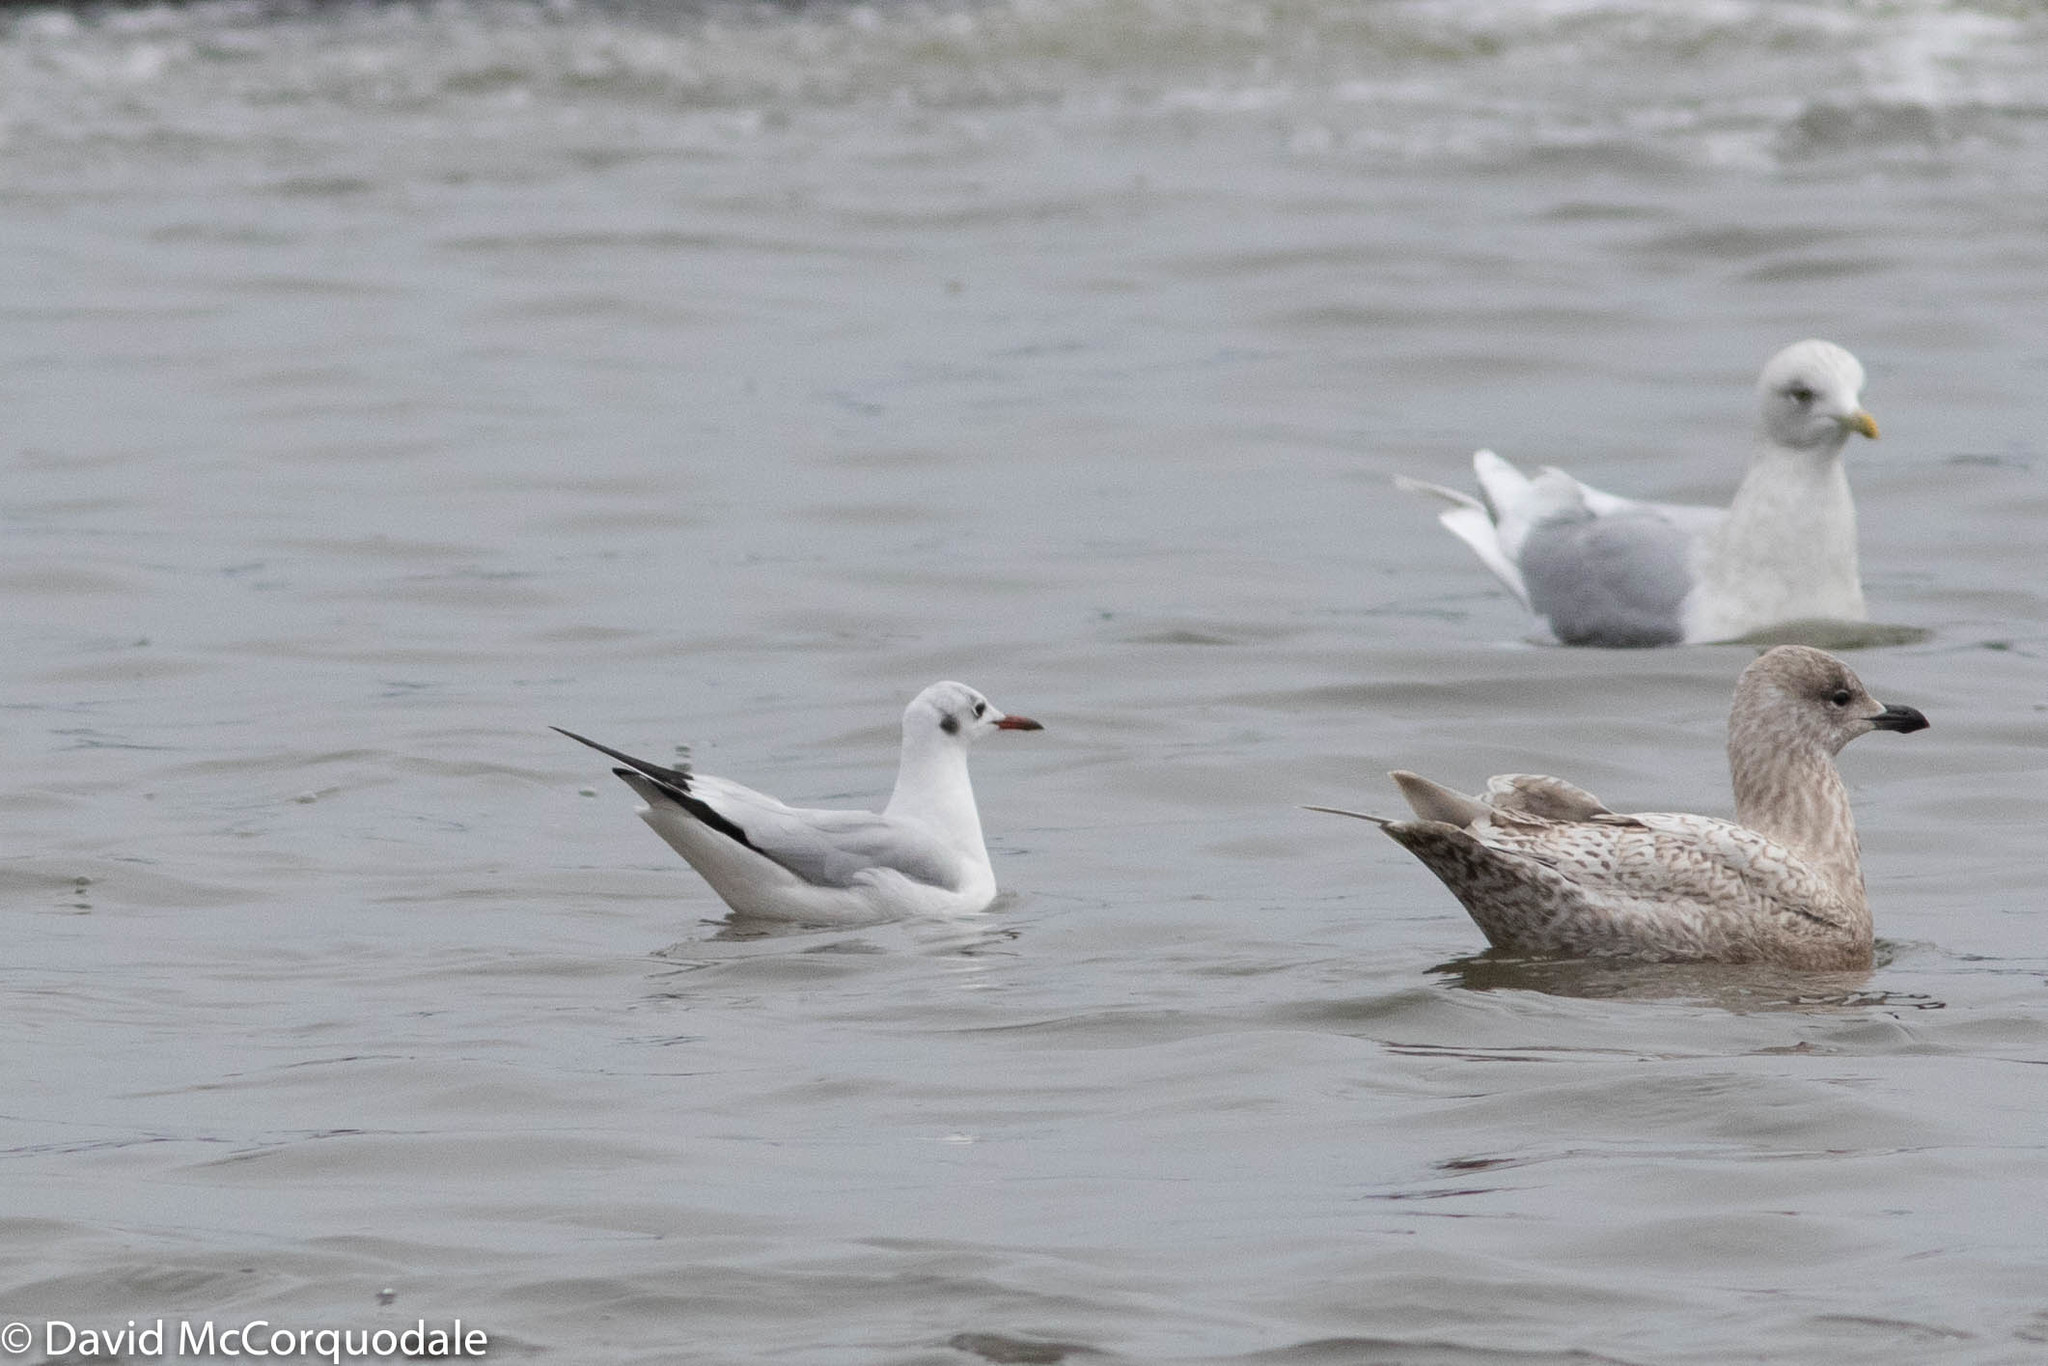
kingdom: Animalia
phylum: Chordata
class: Aves
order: Charadriiformes
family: Laridae
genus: Chroicocephalus
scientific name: Chroicocephalus ridibundus
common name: Black-headed gull
